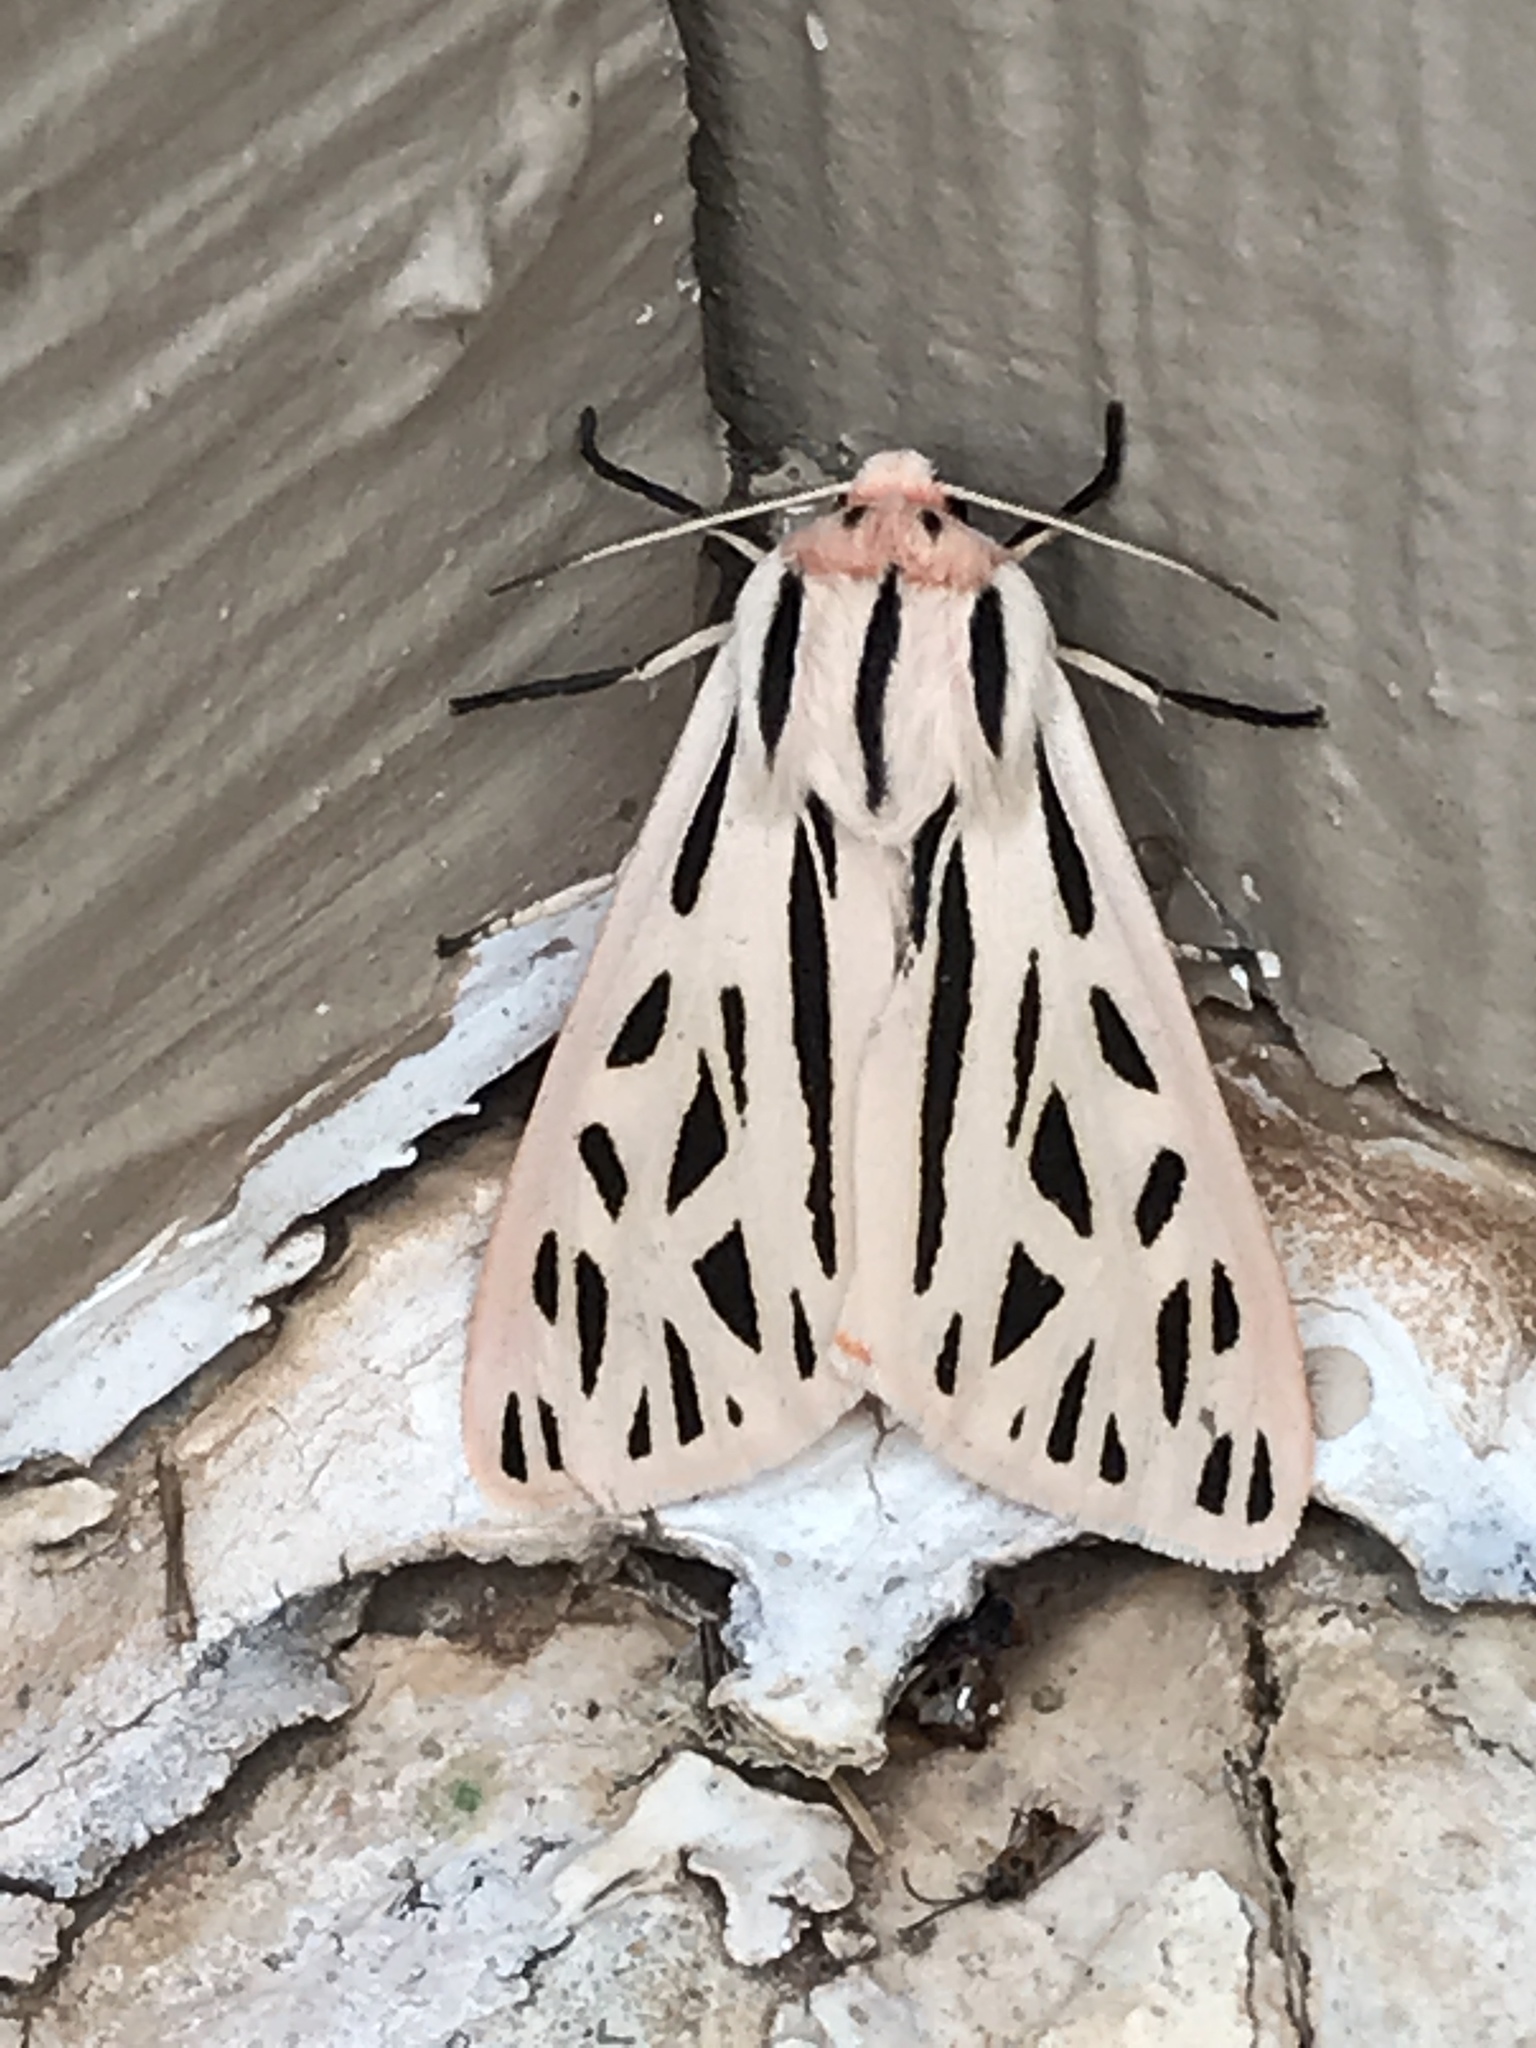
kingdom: Animalia
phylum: Arthropoda
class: Insecta
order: Lepidoptera
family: Erebidae
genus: Apantesis
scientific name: Apantesis arge
